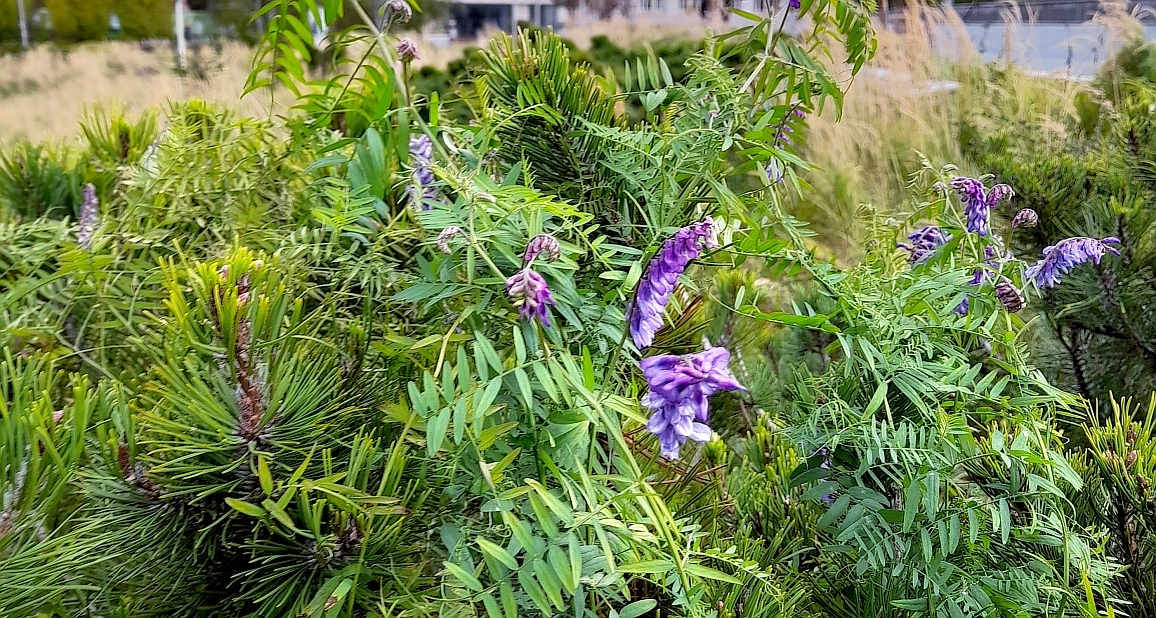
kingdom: Plantae
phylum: Tracheophyta
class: Magnoliopsida
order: Fabales
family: Fabaceae
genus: Vicia
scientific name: Vicia cracca
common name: Bird vetch
